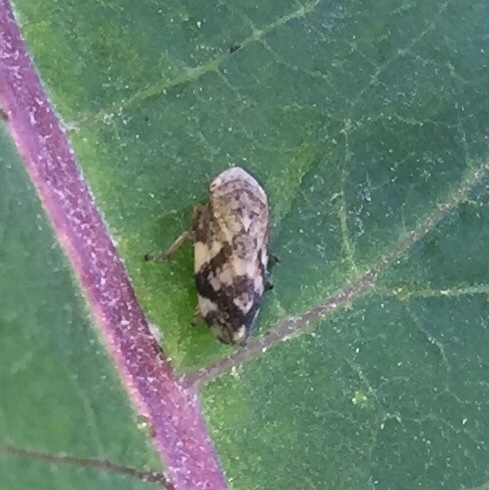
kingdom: Animalia
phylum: Arthropoda
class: Insecta
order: Hemiptera
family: Aphrophoridae
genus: Philaenus
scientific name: Philaenus spumarius
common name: Meadow spittlebug
